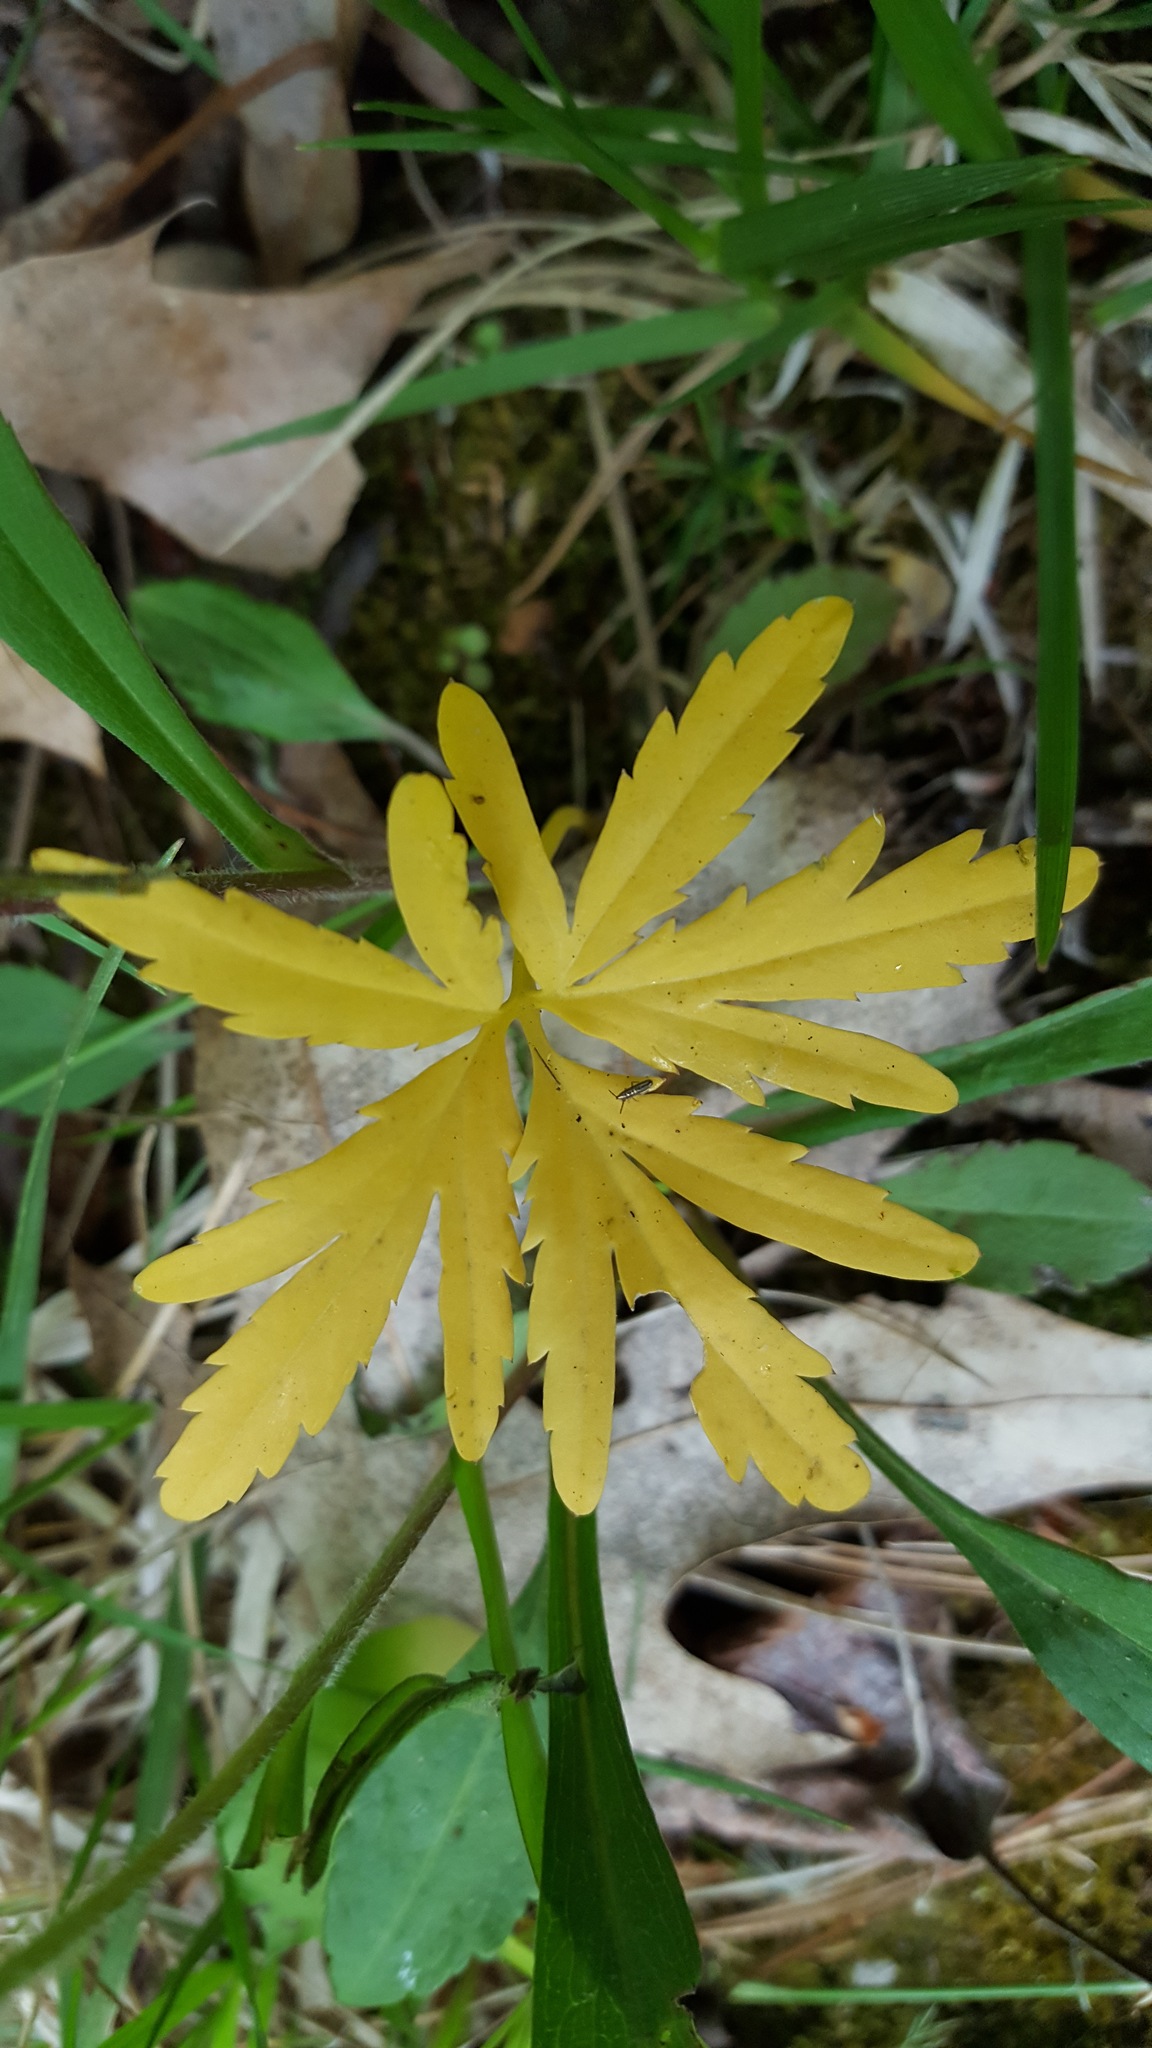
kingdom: Plantae
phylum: Tracheophyta
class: Magnoliopsida
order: Brassicales
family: Brassicaceae
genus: Cardamine
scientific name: Cardamine concatenata
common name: Cut-leaf toothcup
